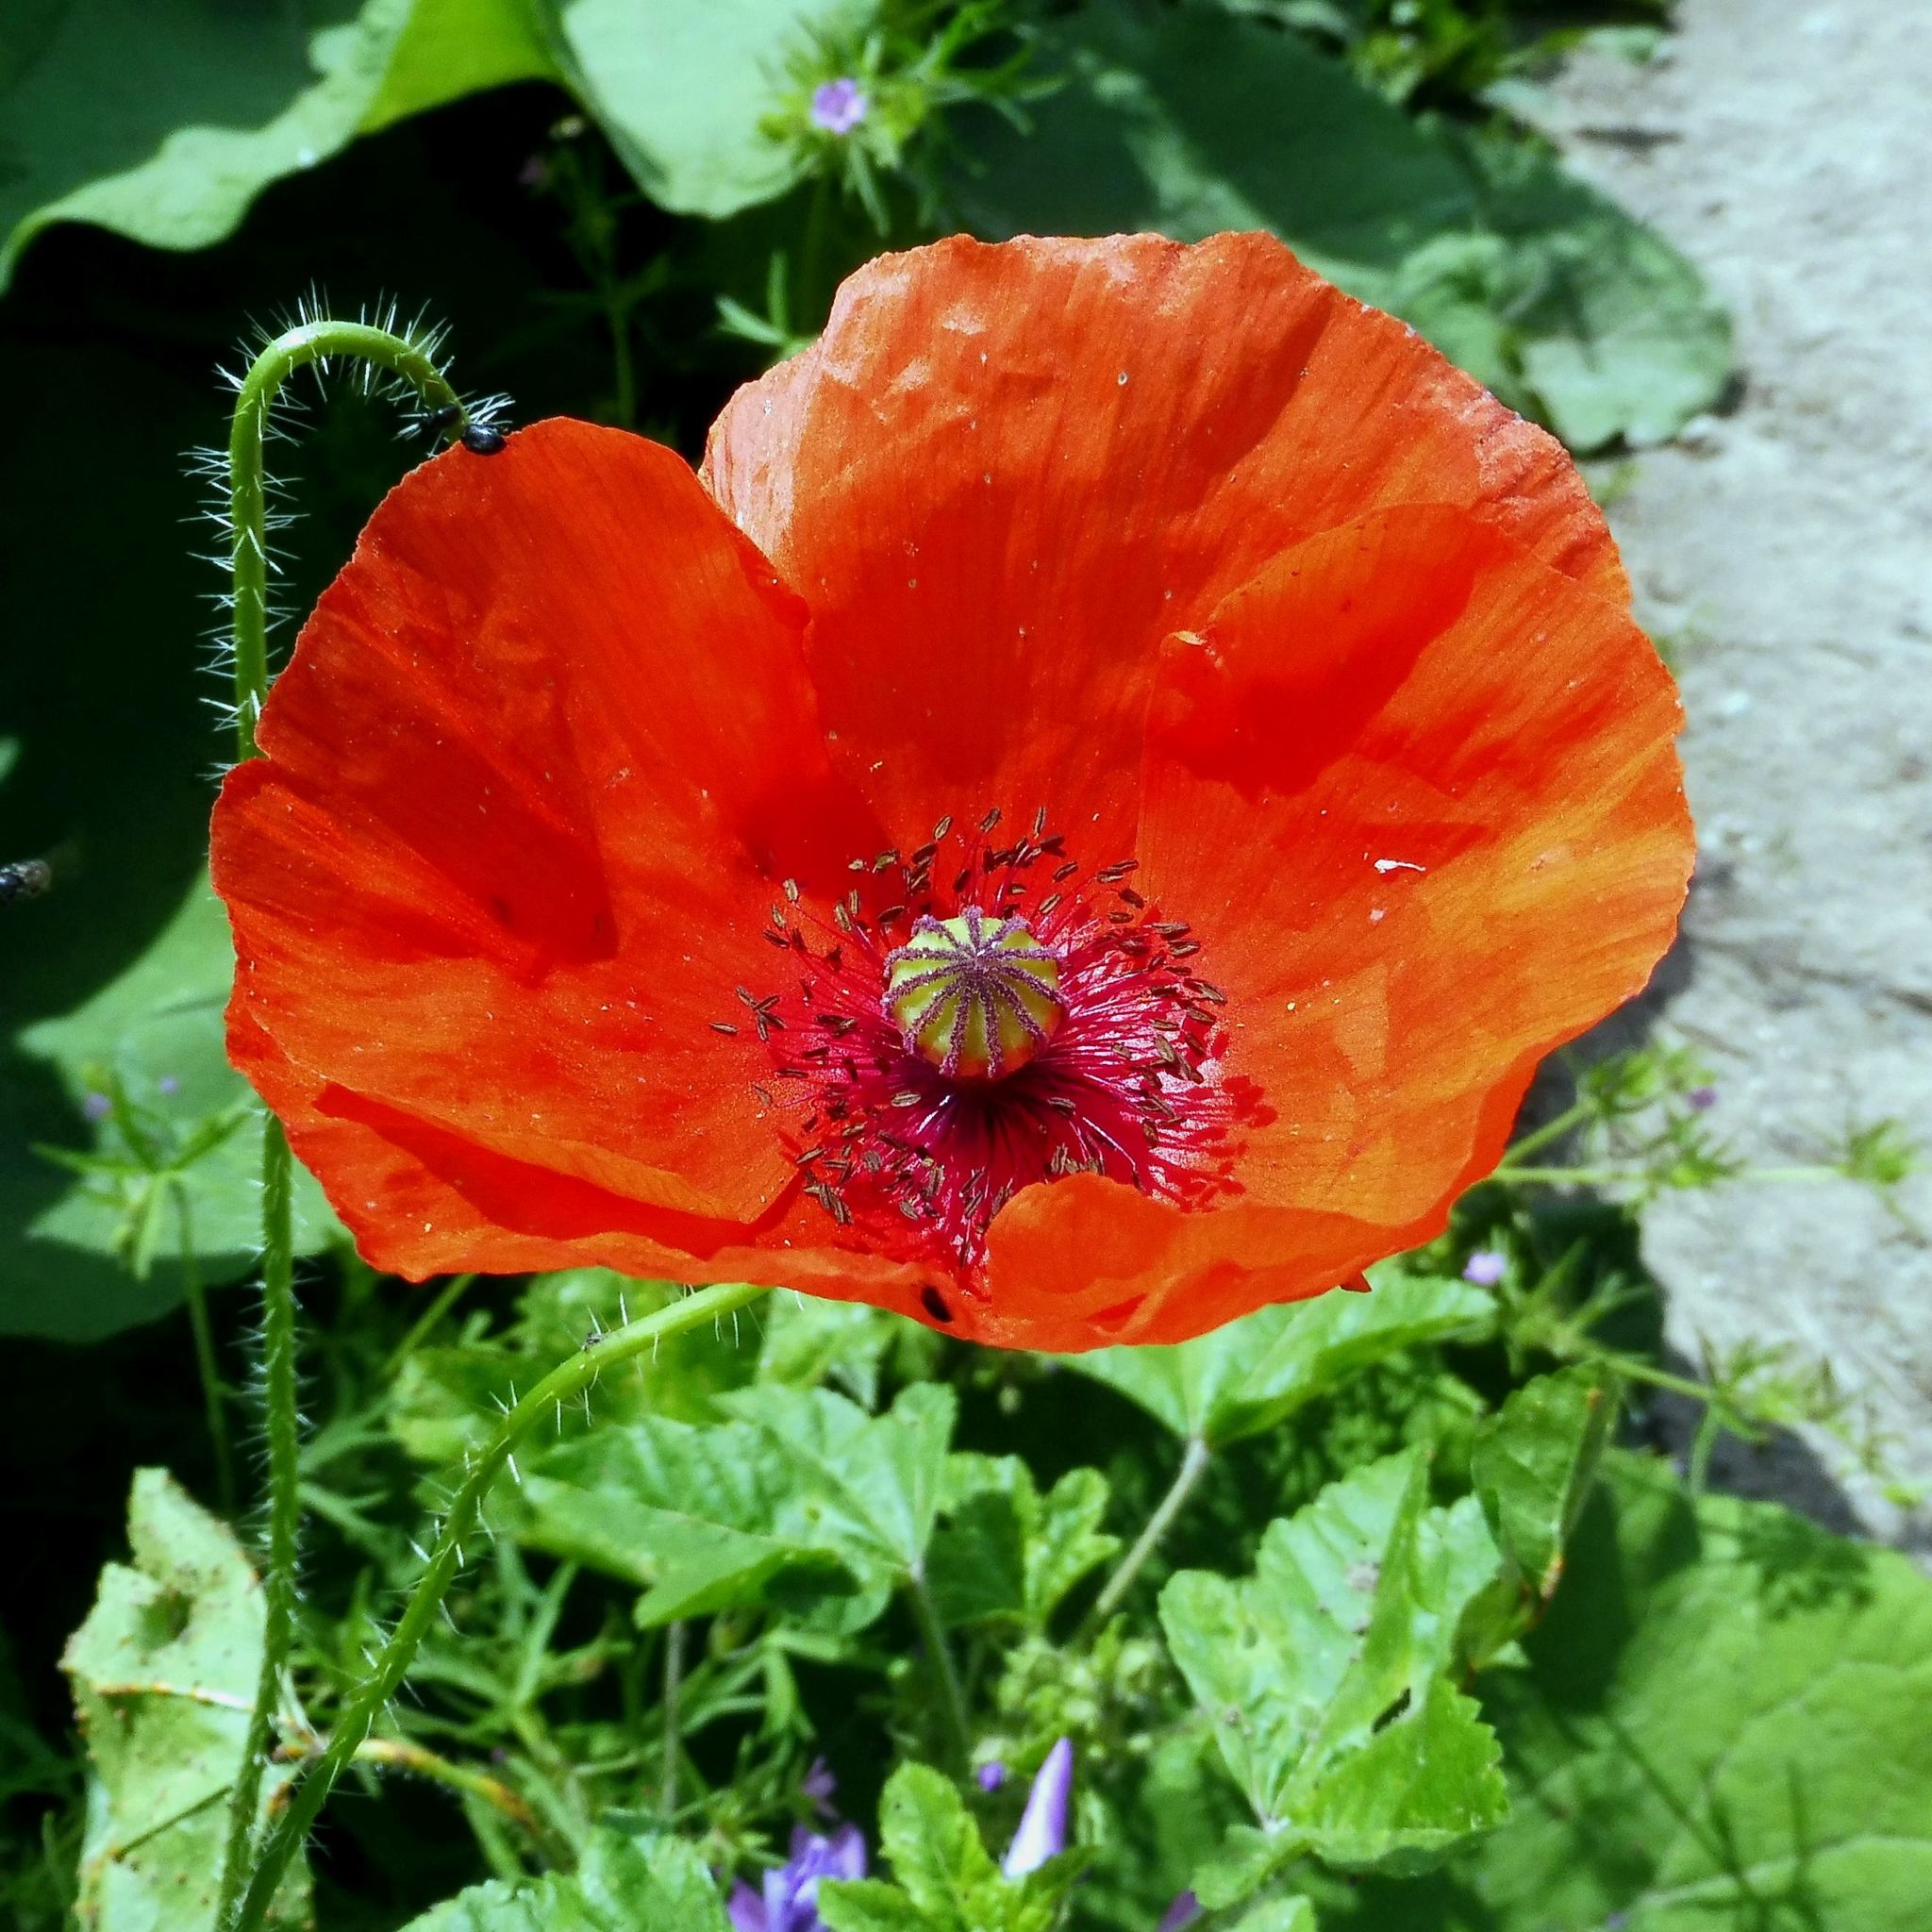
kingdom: Plantae
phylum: Tracheophyta
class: Magnoliopsida
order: Ranunculales
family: Papaveraceae
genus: Papaver
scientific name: Papaver rhoeas
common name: Corn poppy
